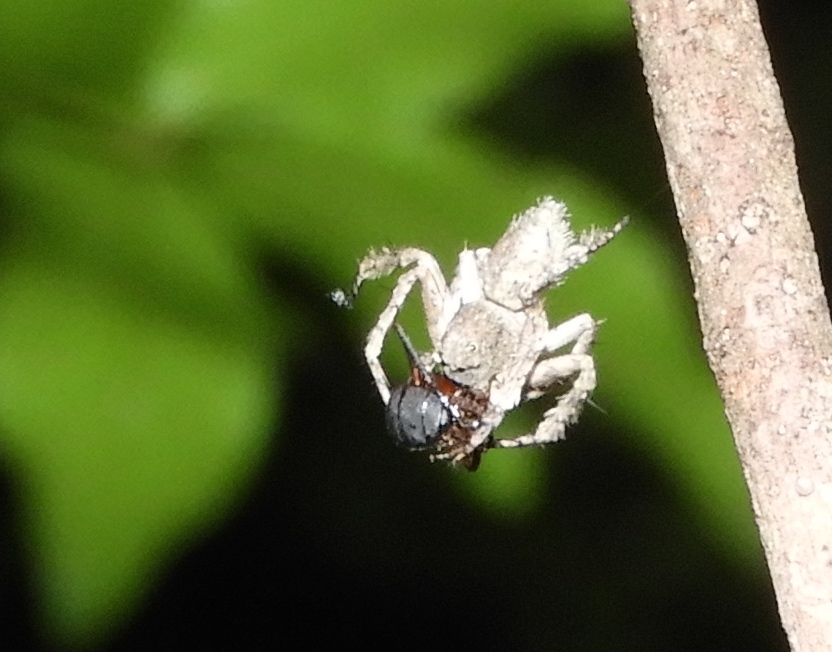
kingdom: Animalia
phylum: Arthropoda
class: Arachnida
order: Araneae
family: Oxyopidae
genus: Hamataliwa
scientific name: Hamataliwa grisea
